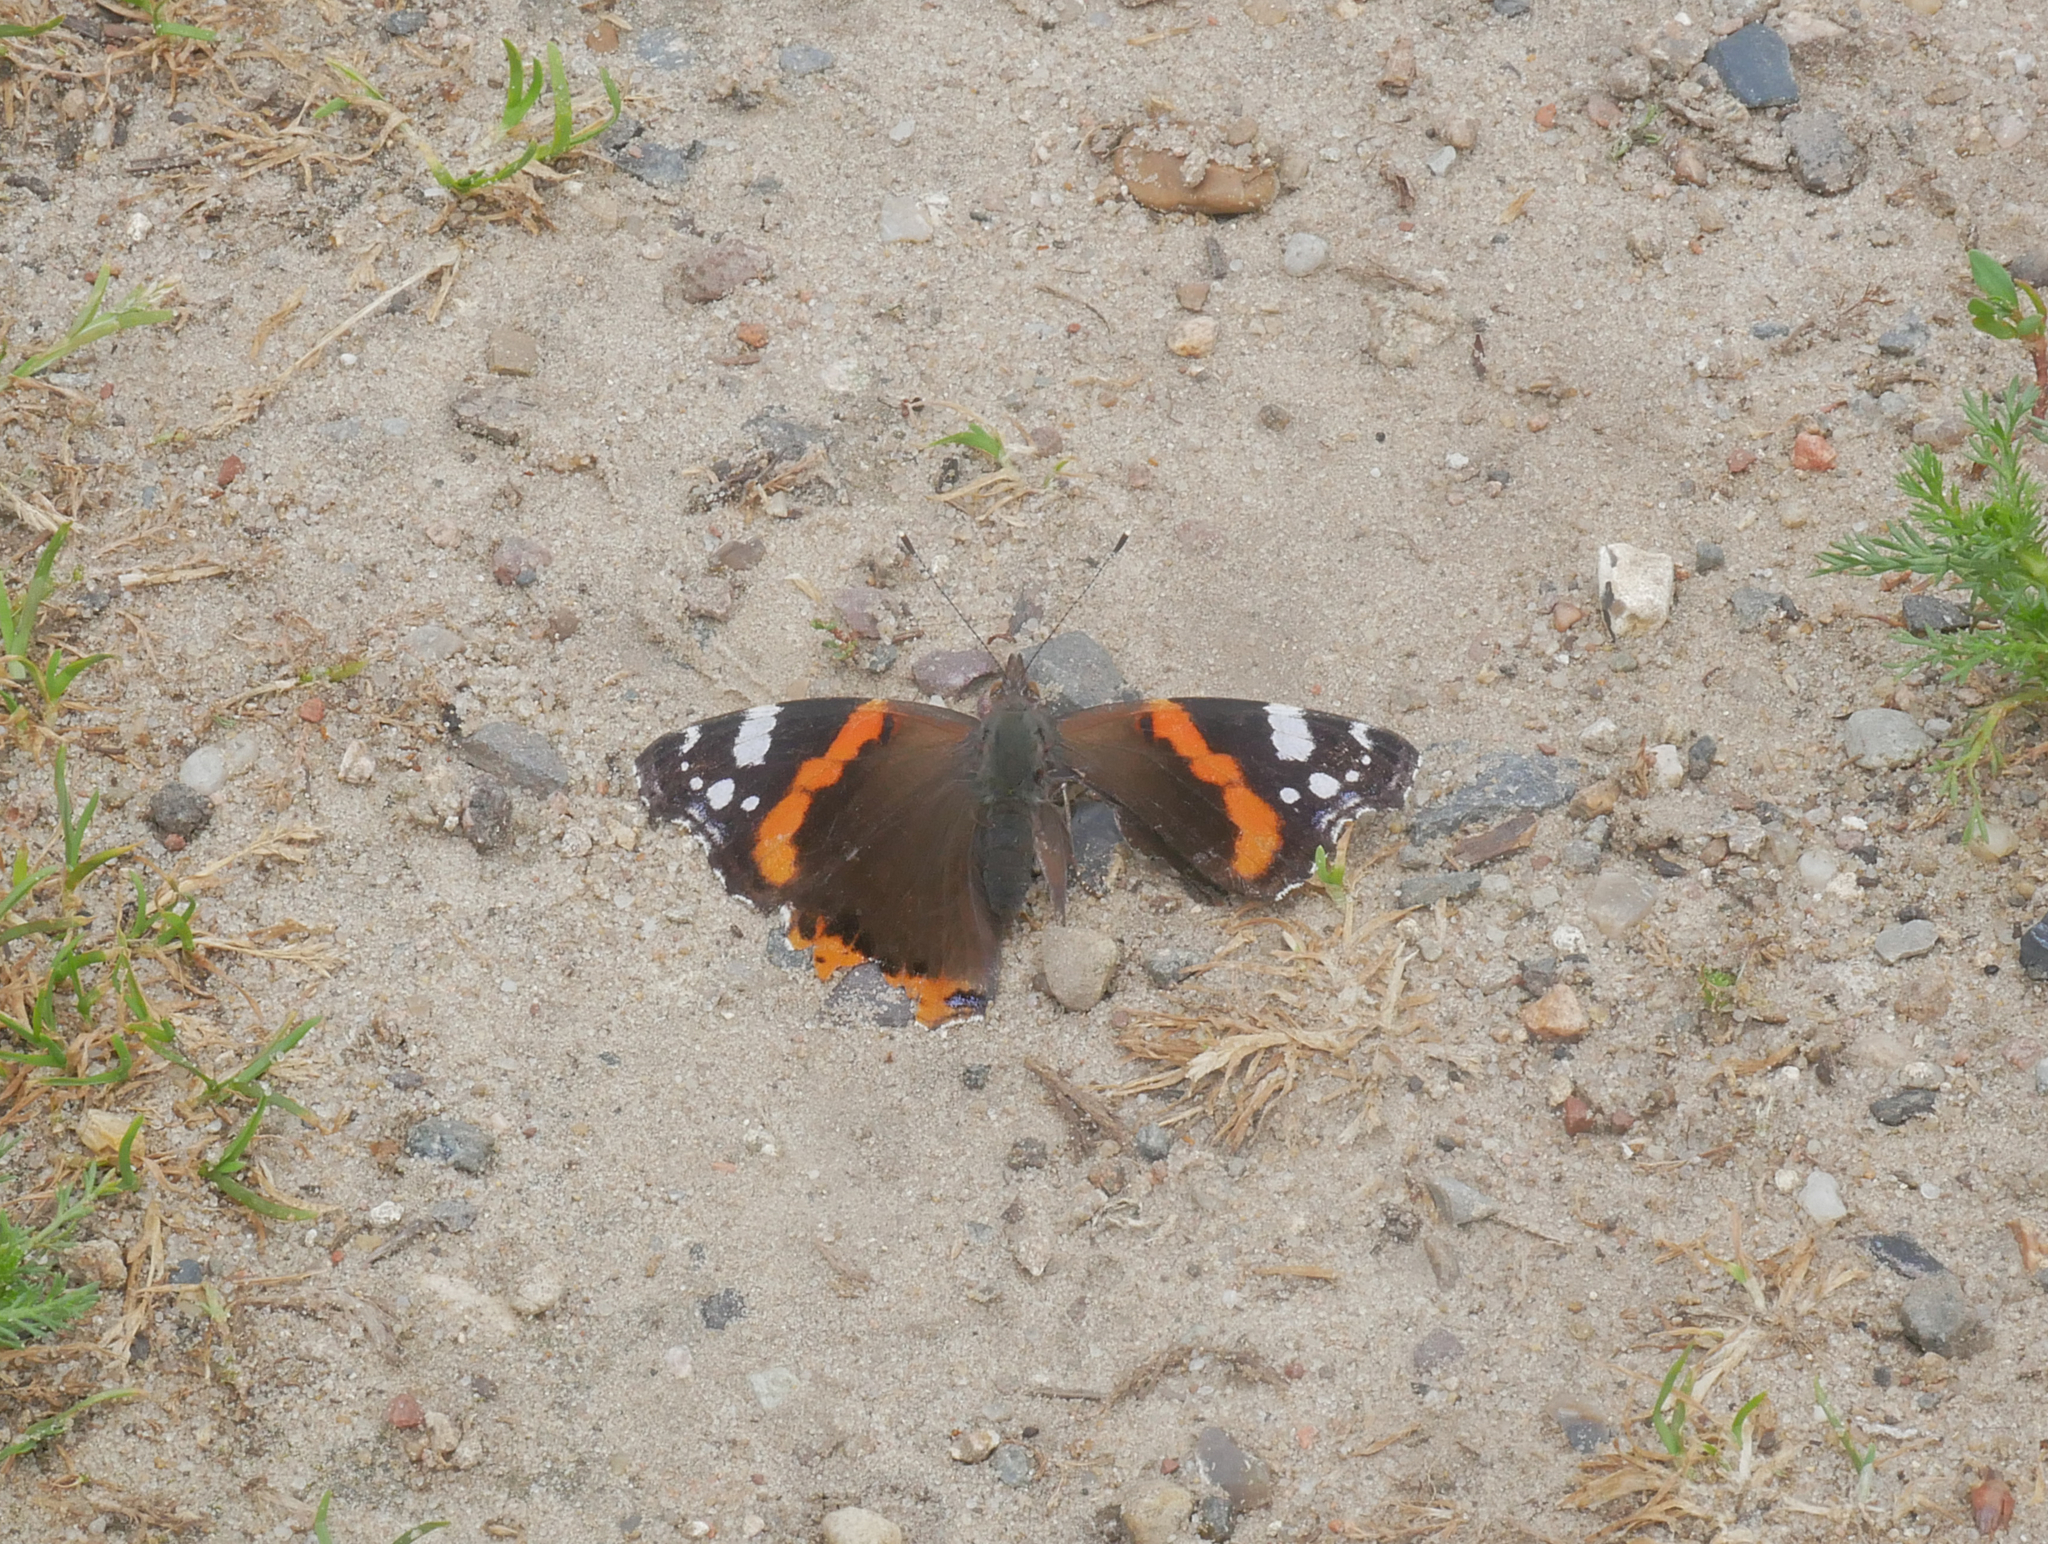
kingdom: Animalia
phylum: Arthropoda
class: Insecta
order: Lepidoptera
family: Nymphalidae
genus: Vanessa
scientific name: Vanessa atalanta
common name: Red admiral
